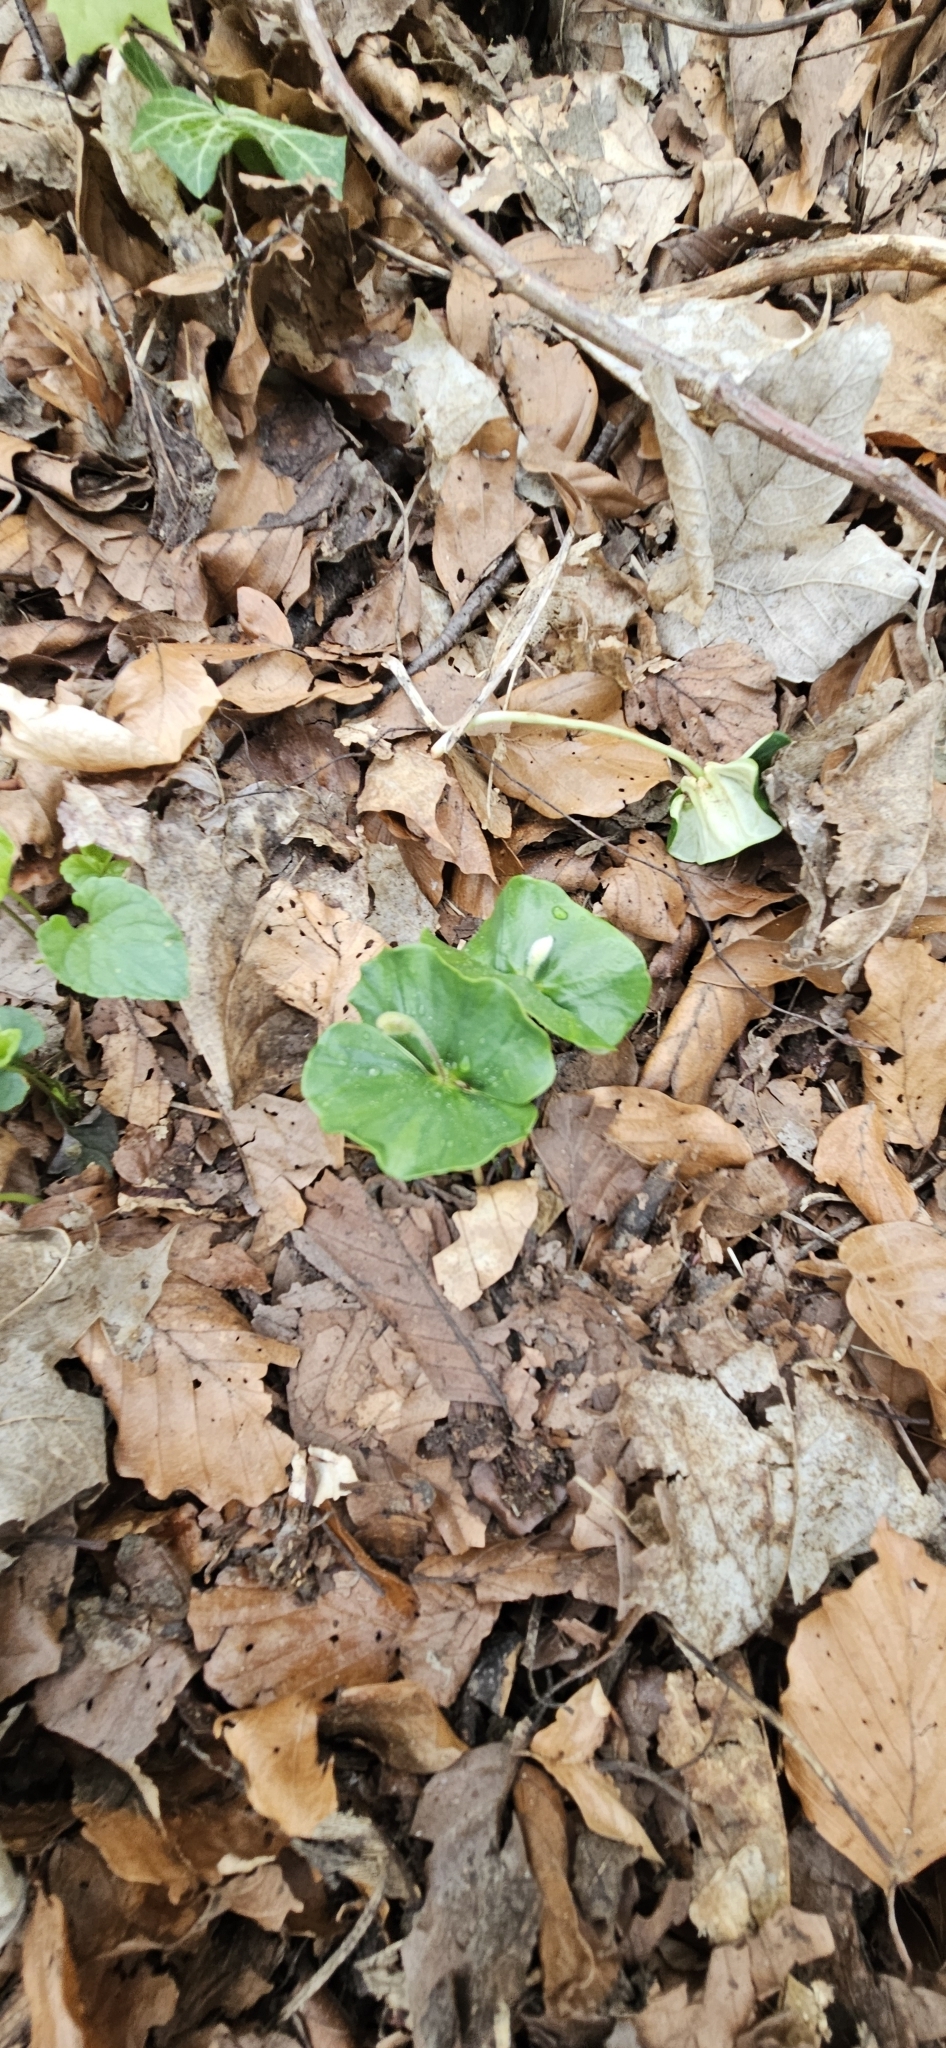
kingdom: Plantae
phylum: Tracheophyta
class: Magnoliopsida
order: Fagales
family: Fagaceae
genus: Fagus
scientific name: Fagus sylvatica
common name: Beech
